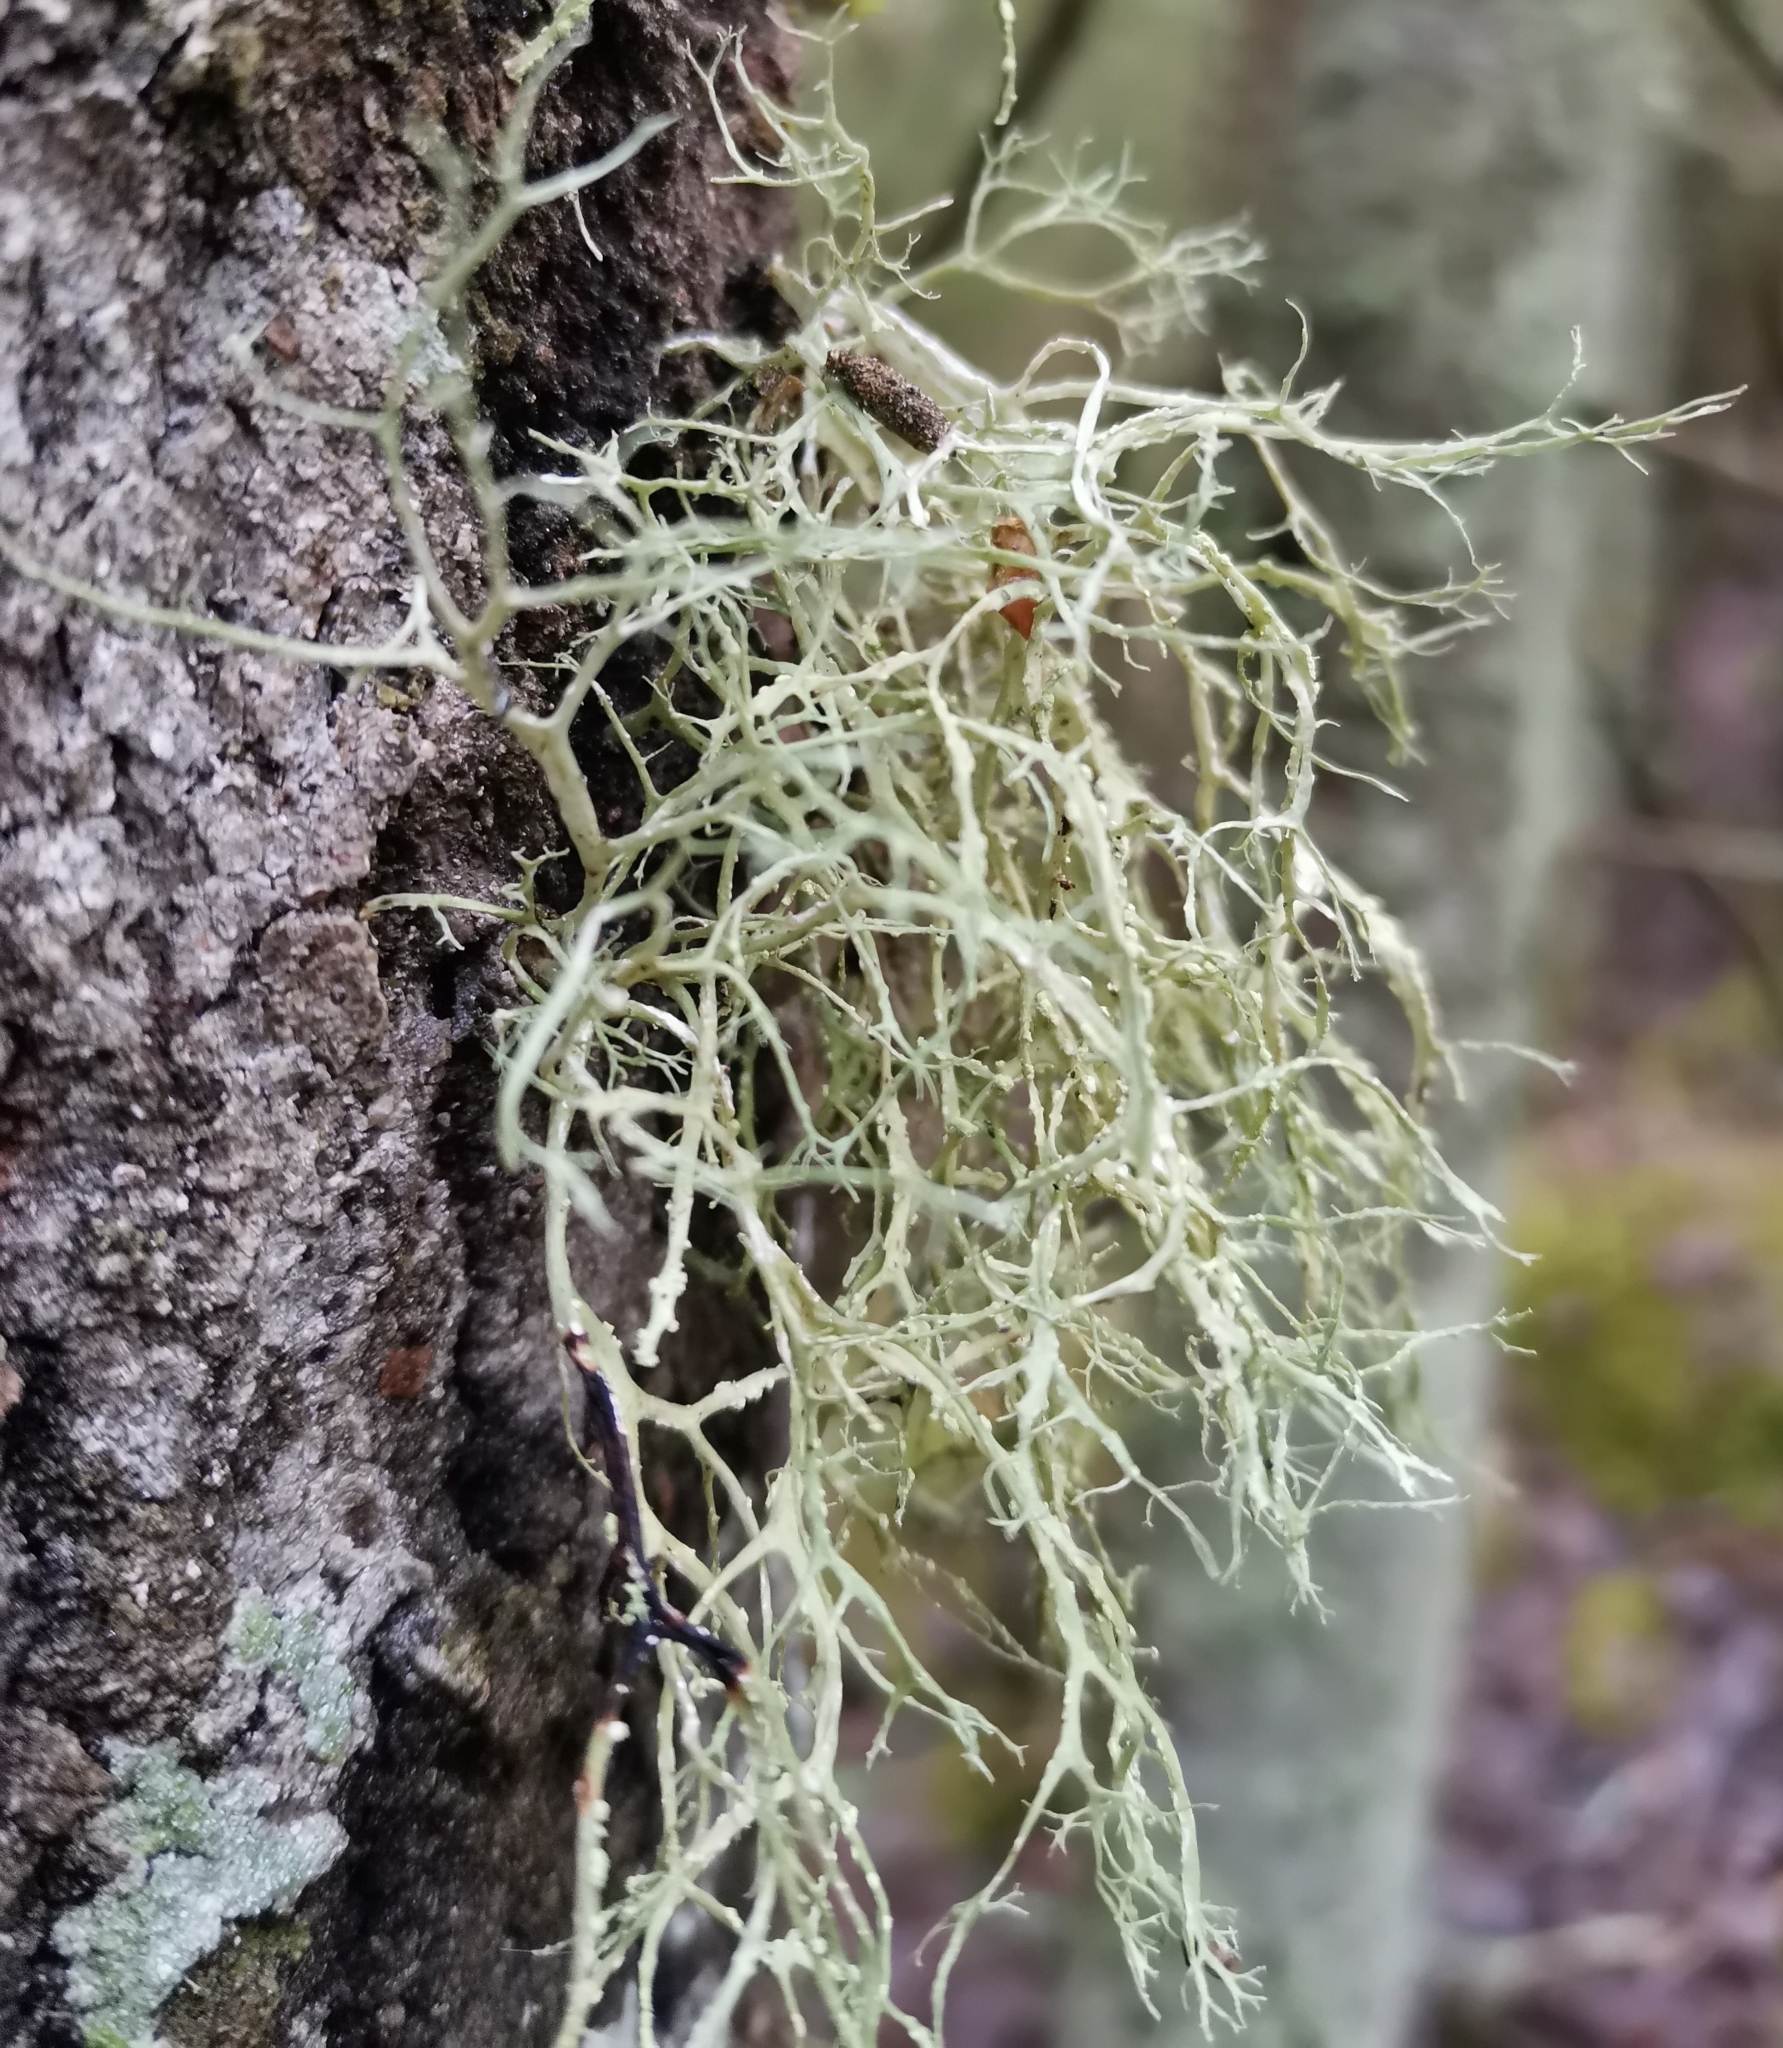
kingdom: Fungi
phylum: Ascomycota
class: Lecanoromycetes
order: Lecanorales
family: Ramalinaceae
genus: Ramalina
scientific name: Ramalina farinacea
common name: Farinose cartilage lichen
